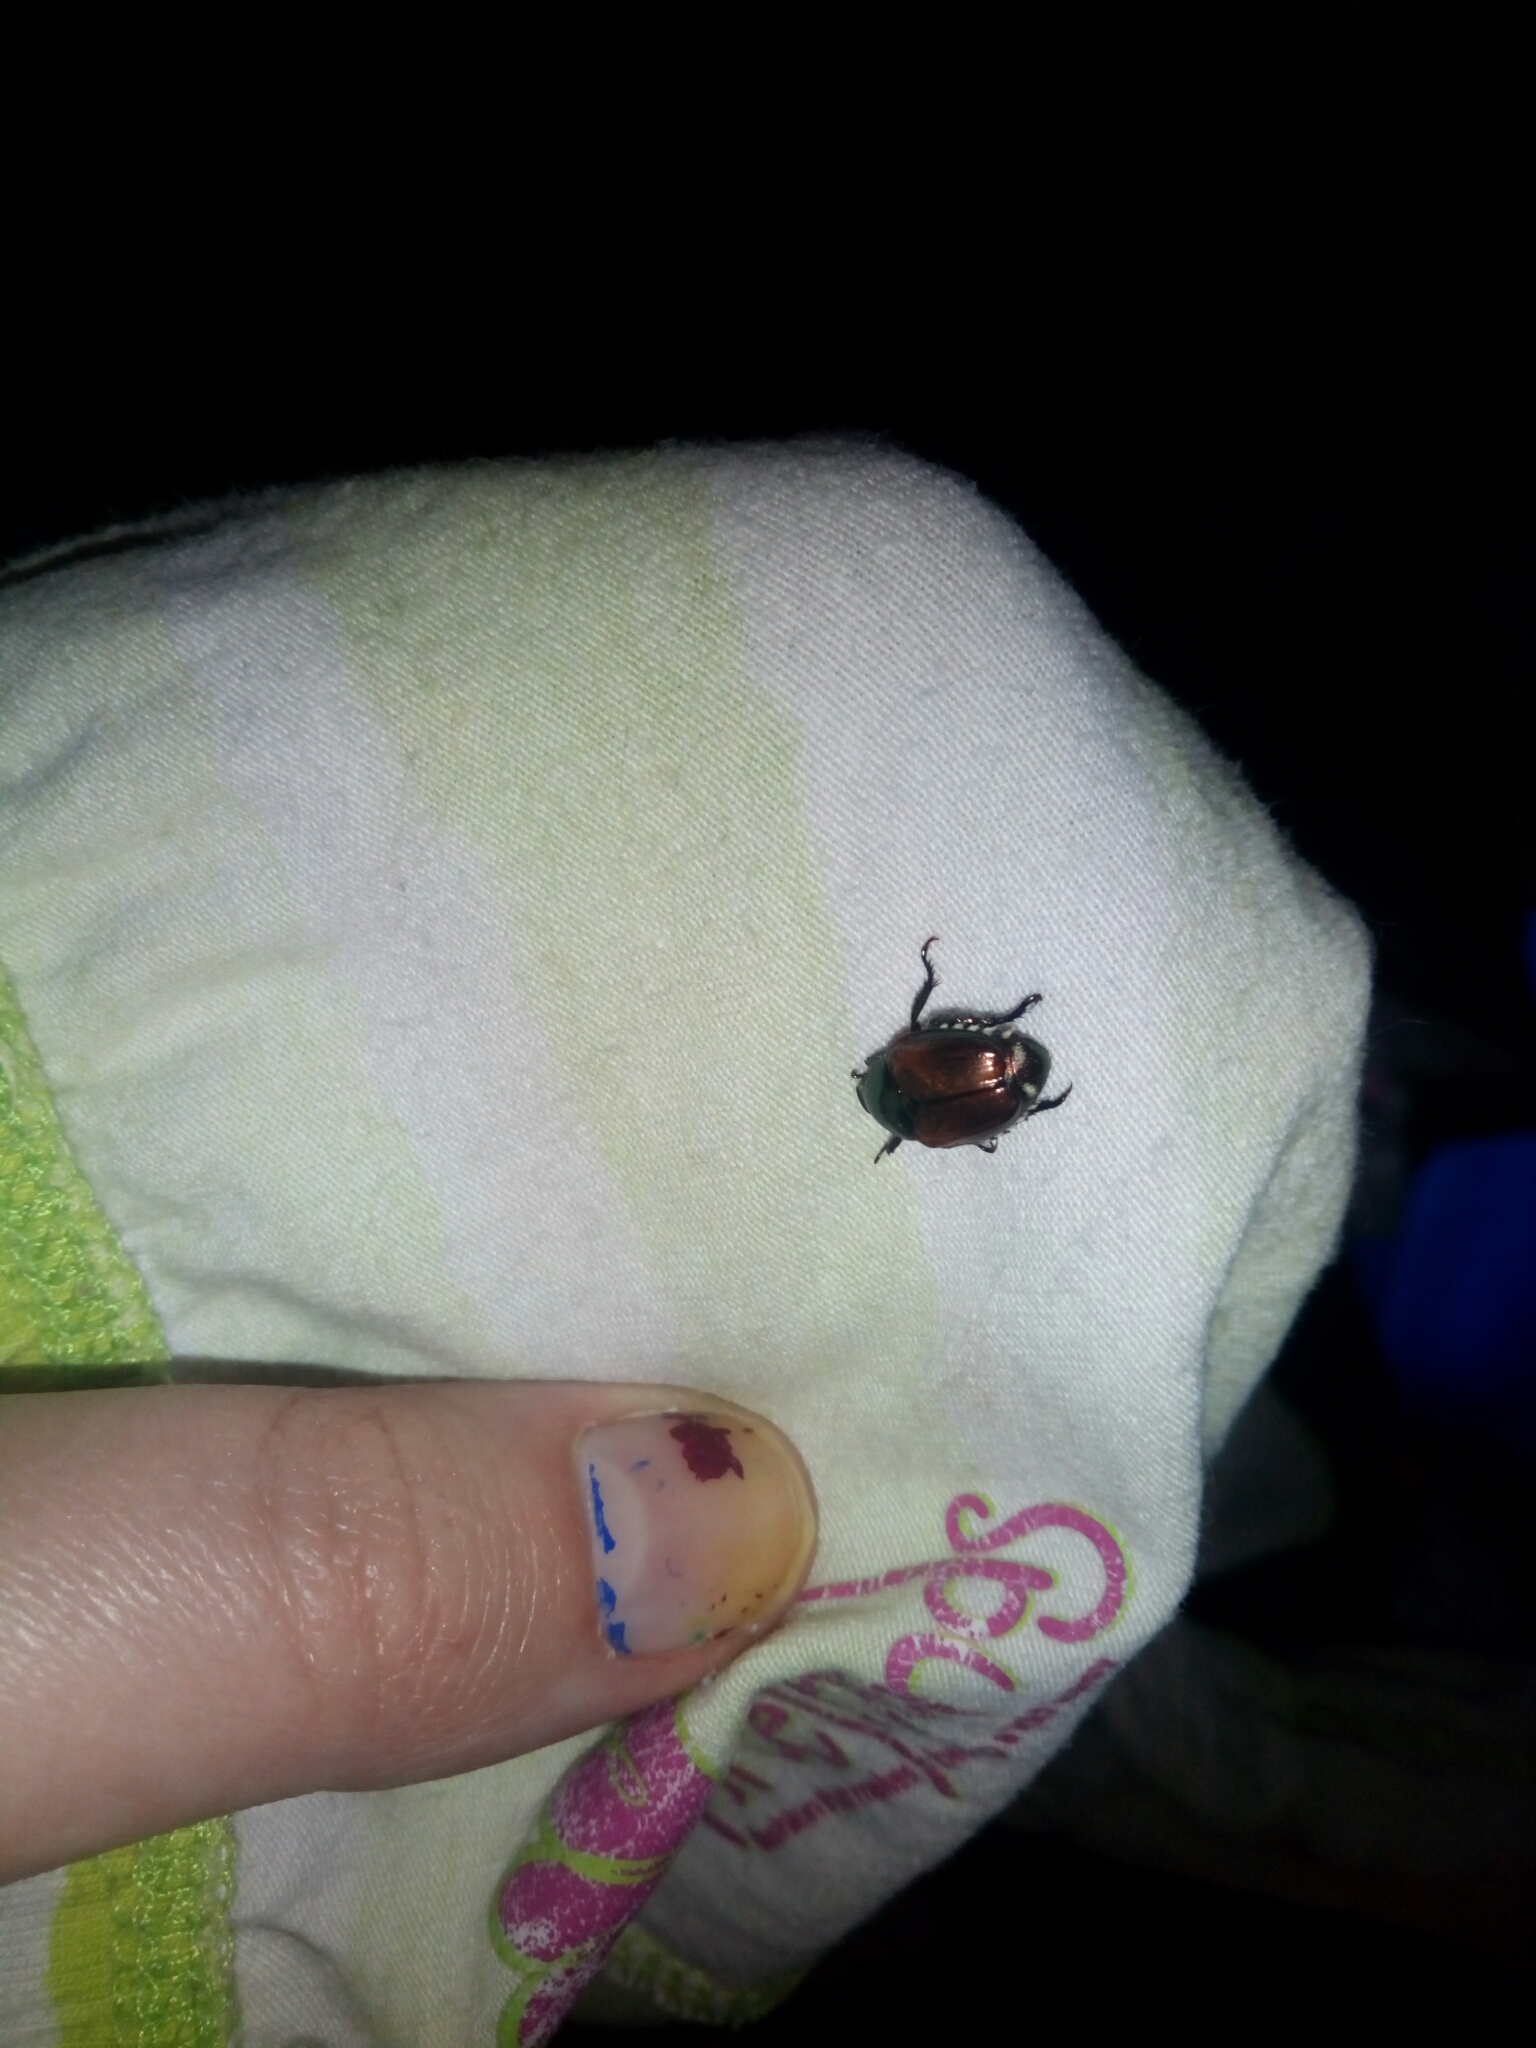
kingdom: Animalia
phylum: Arthropoda
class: Insecta
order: Coleoptera
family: Scarabaeidae
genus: Popillia
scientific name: Popillia japonica
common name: Japanese beetle
